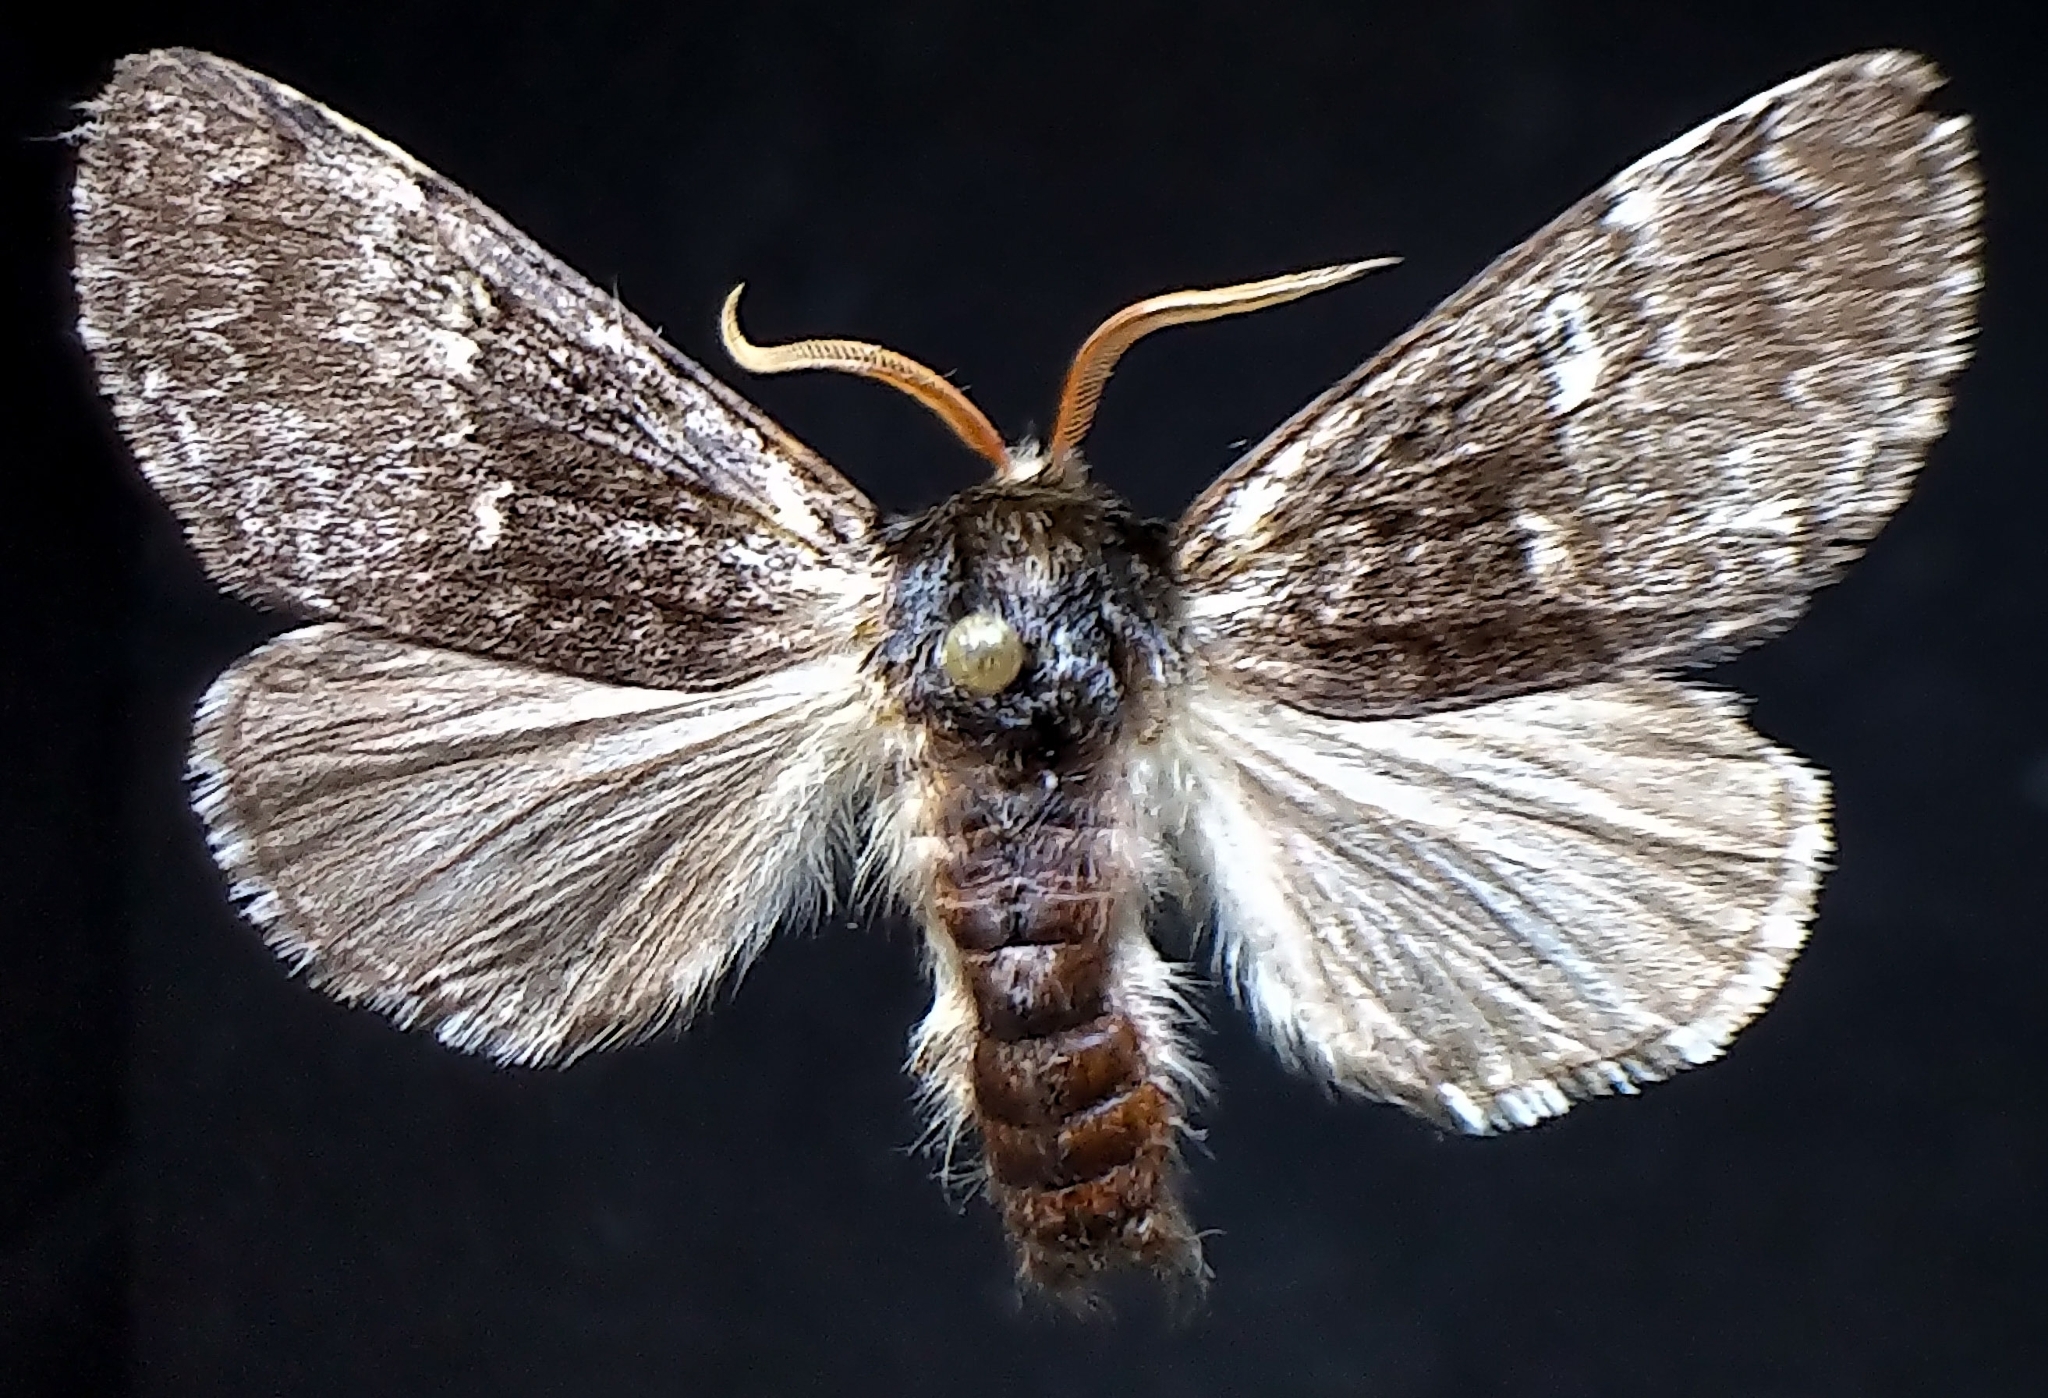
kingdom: Animalia
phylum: Arthropoda
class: Insecta
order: Lepidoptera
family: Noctuidae
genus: Colocasia
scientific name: Colocasia propinquilinea
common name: Close-banded demas
